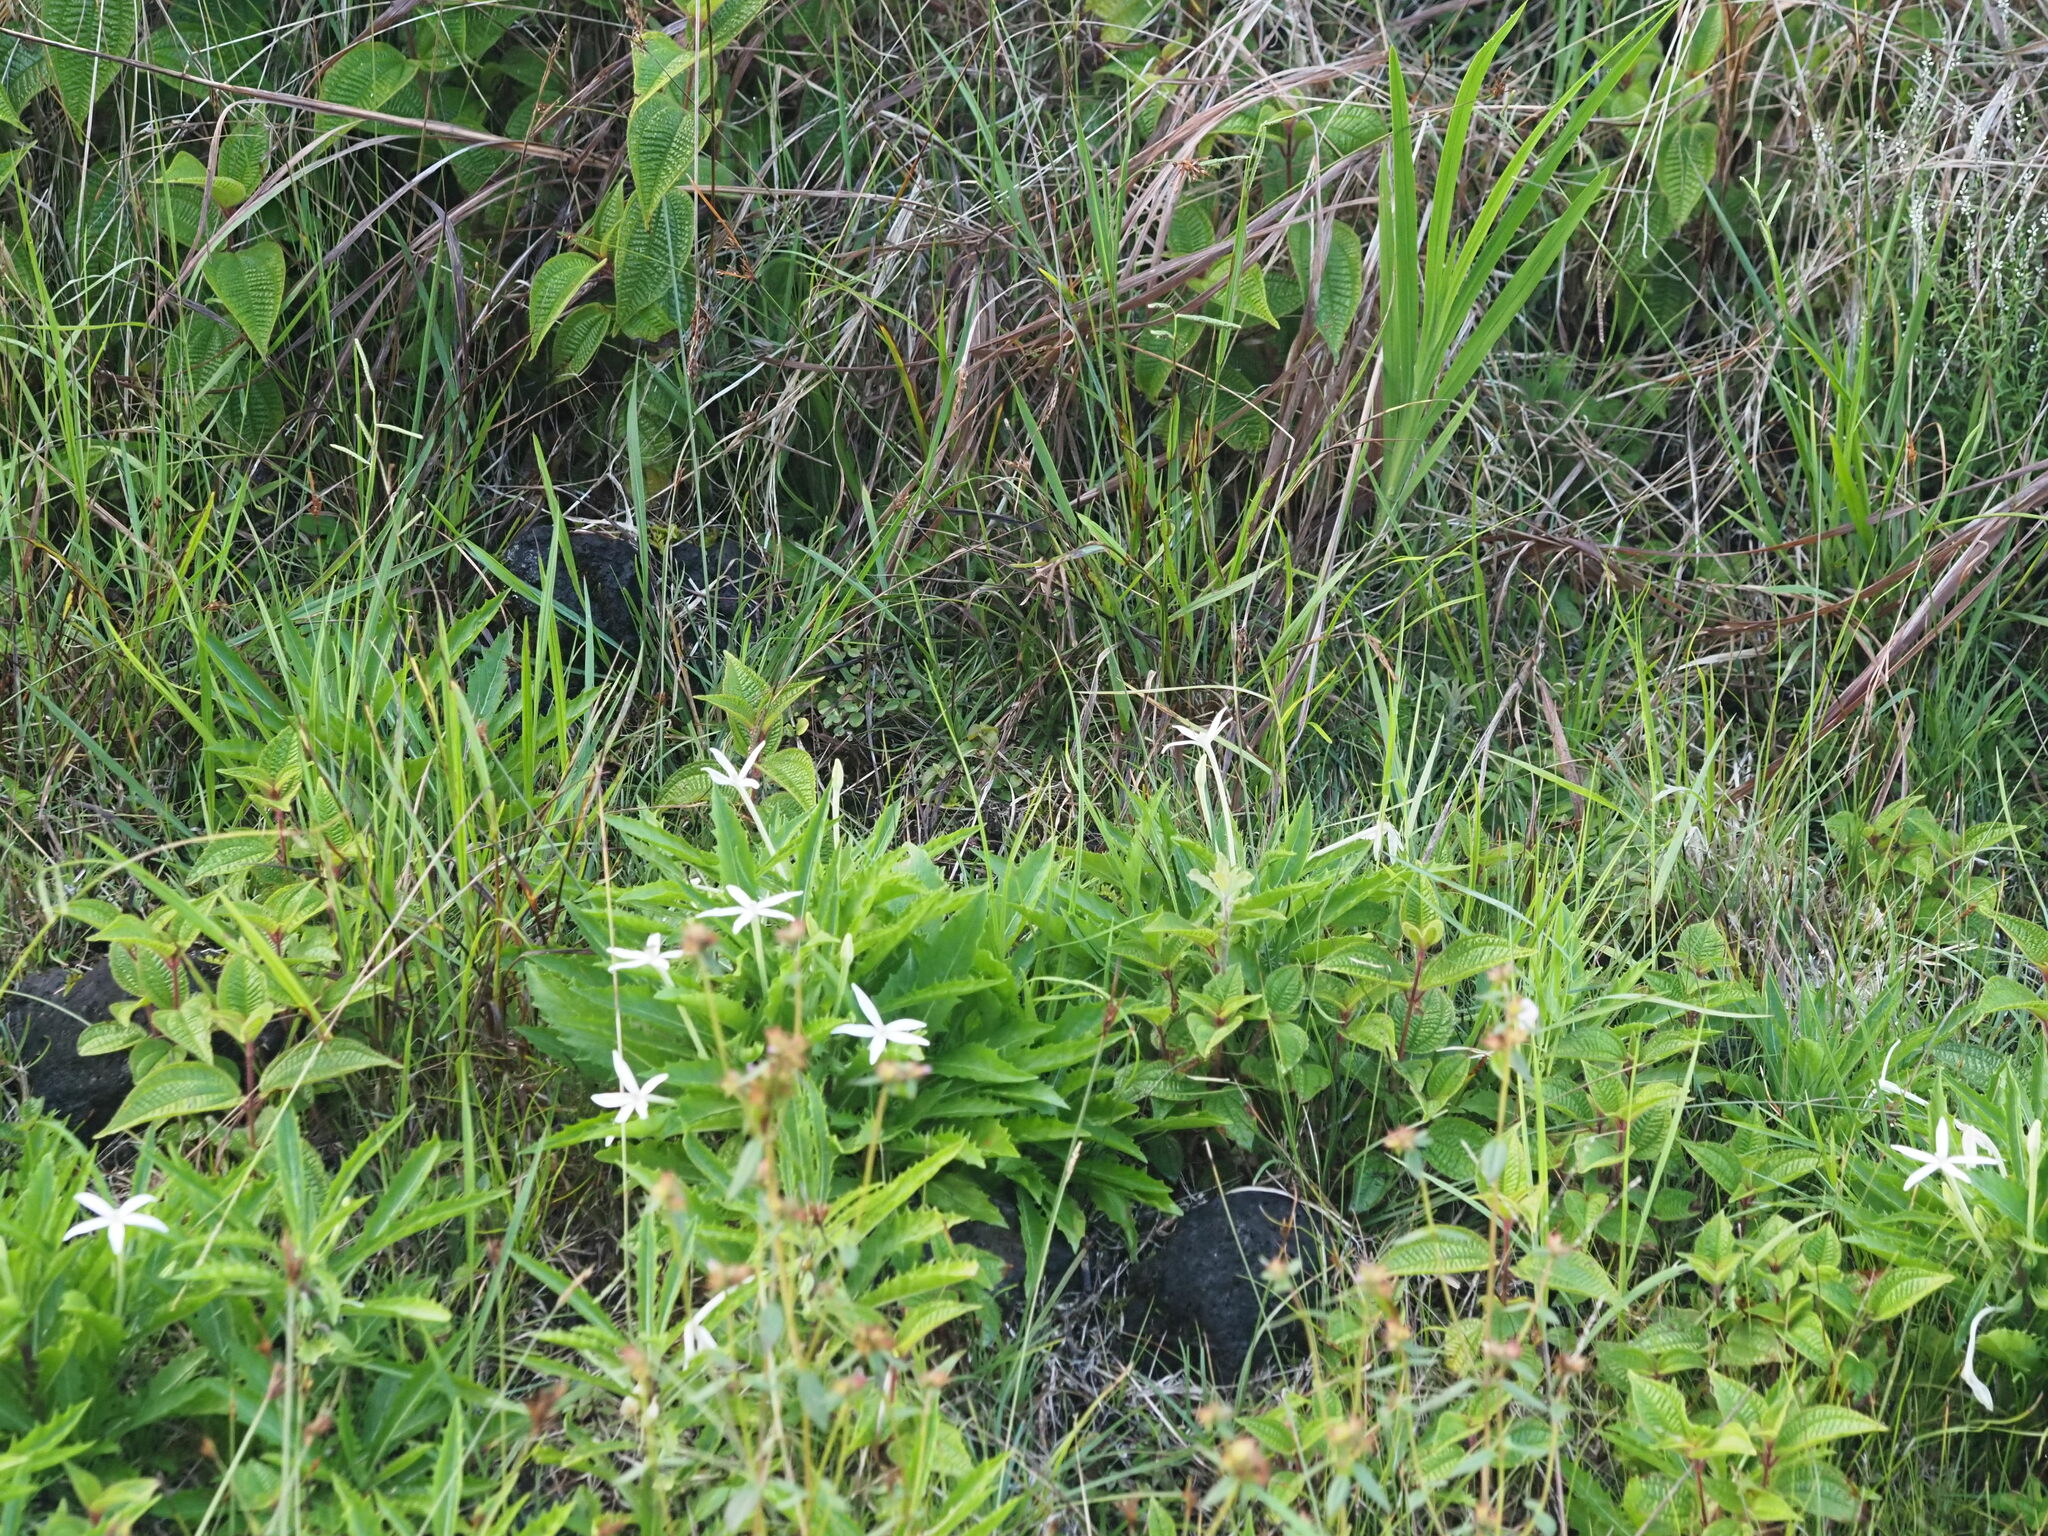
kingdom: Plantae
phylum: Tracheophyta
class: Magnoliopsida
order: Asterales
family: Campanulaceae
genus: Hippobroma
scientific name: Hippobroma longiflora
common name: Madamfate
